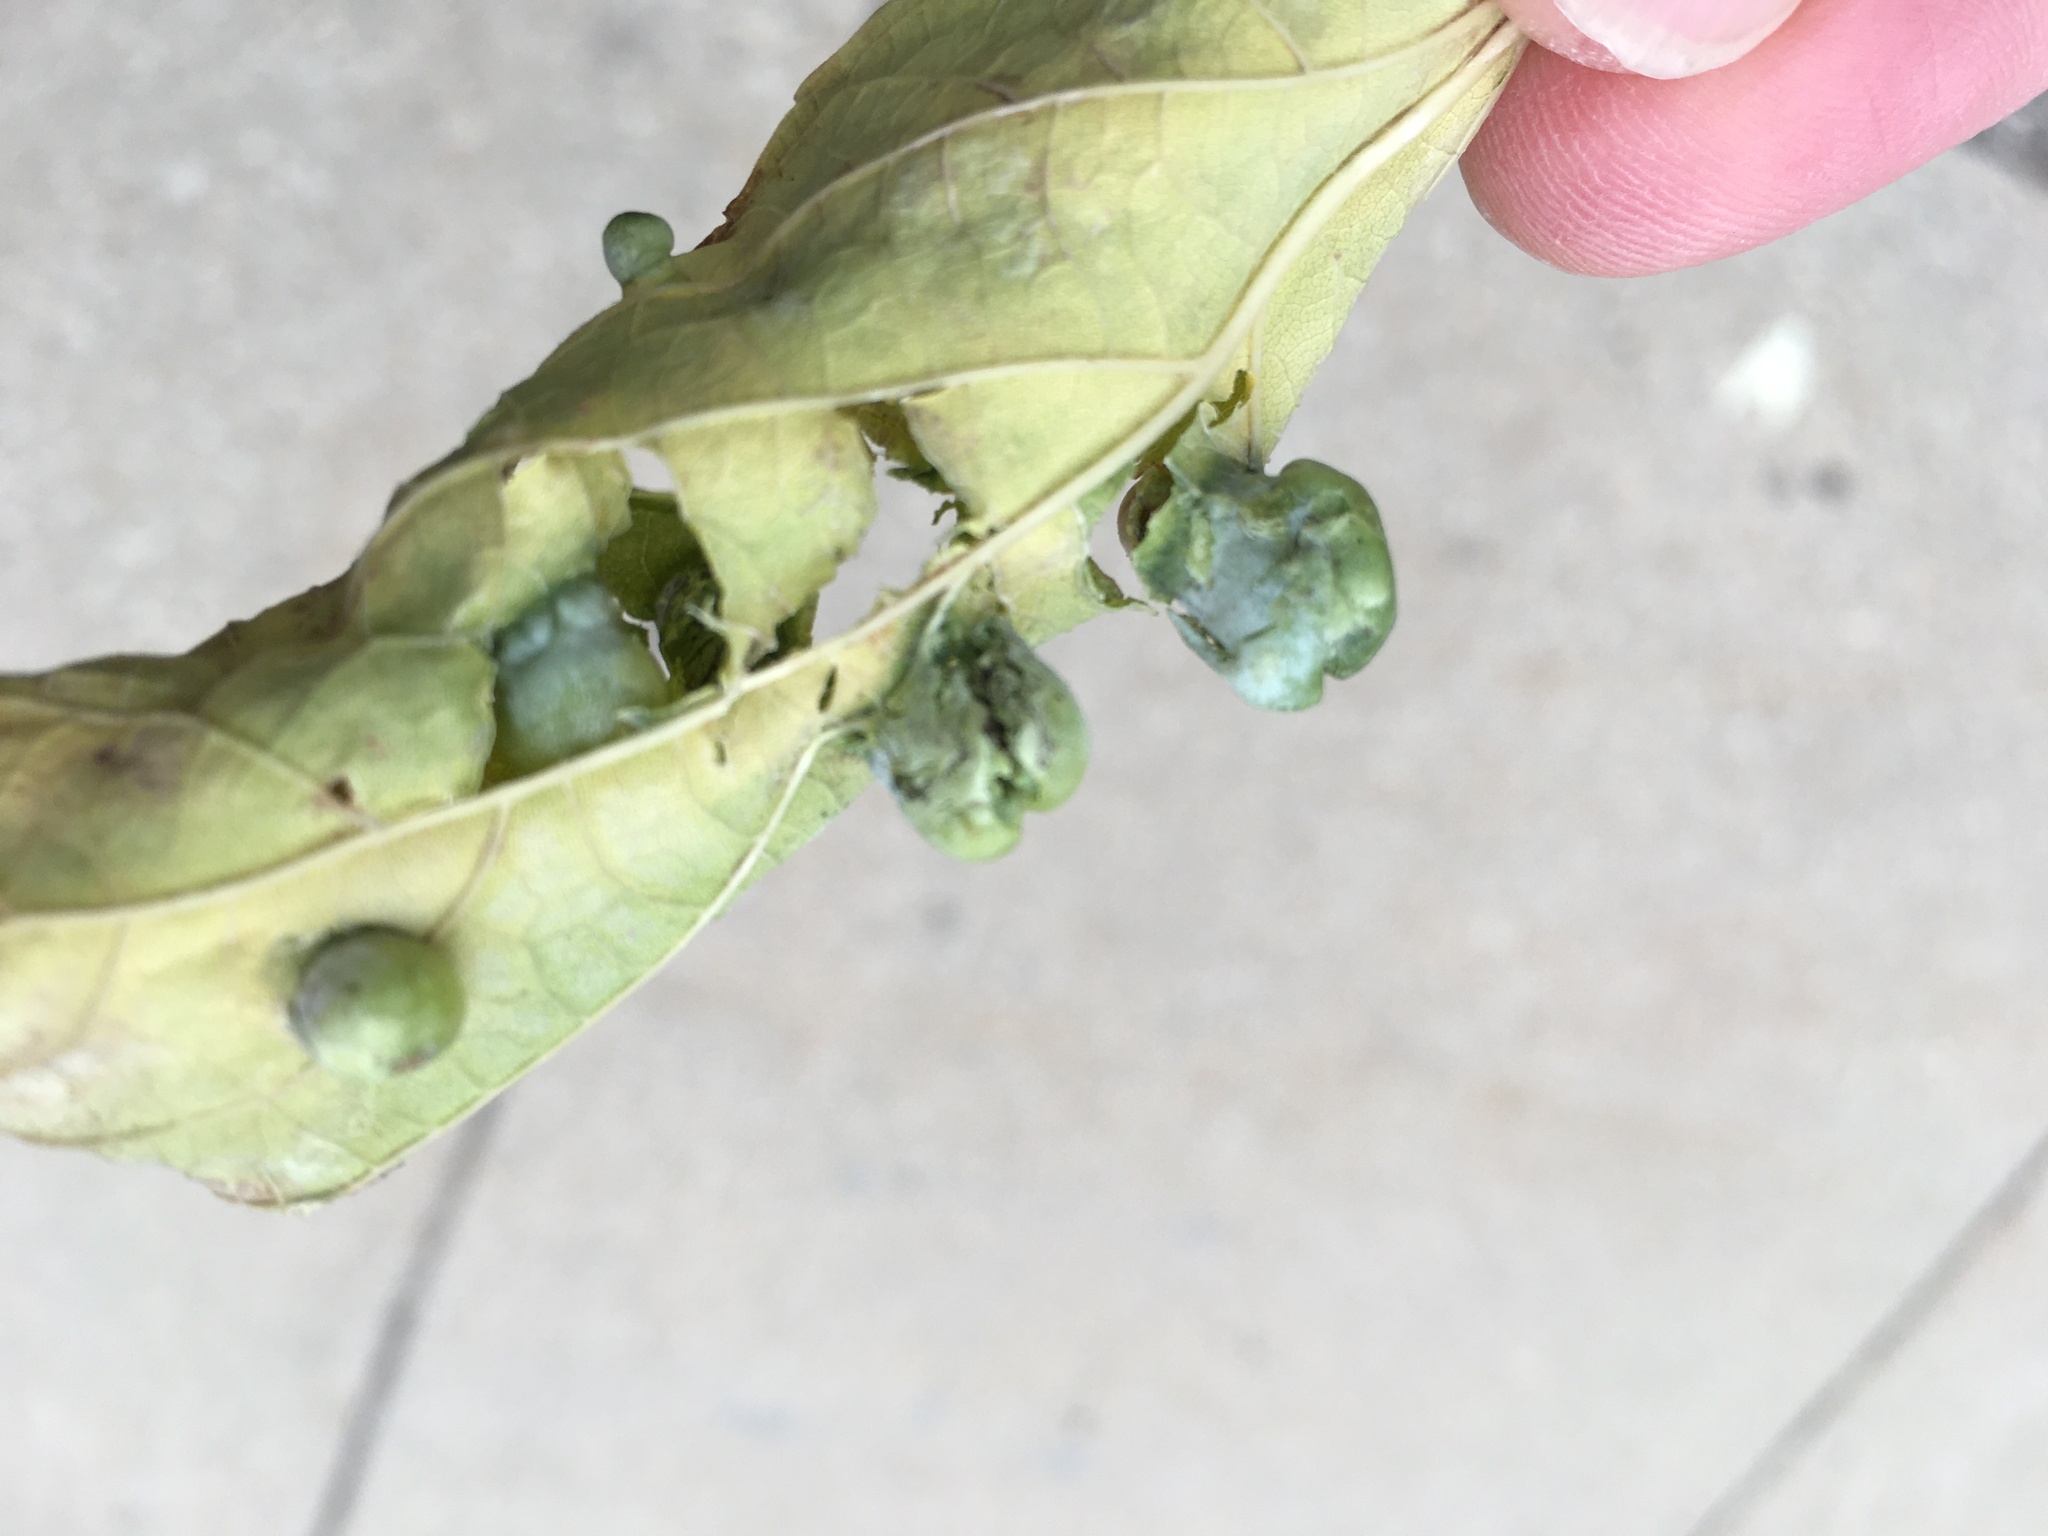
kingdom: Animalia
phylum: Arthropoda
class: Insecta
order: Hemiptera
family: Aphalaridae
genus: Pachypsylla
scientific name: Pachypsylla celtidismamma
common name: Hackberry nipplegall psyllid
